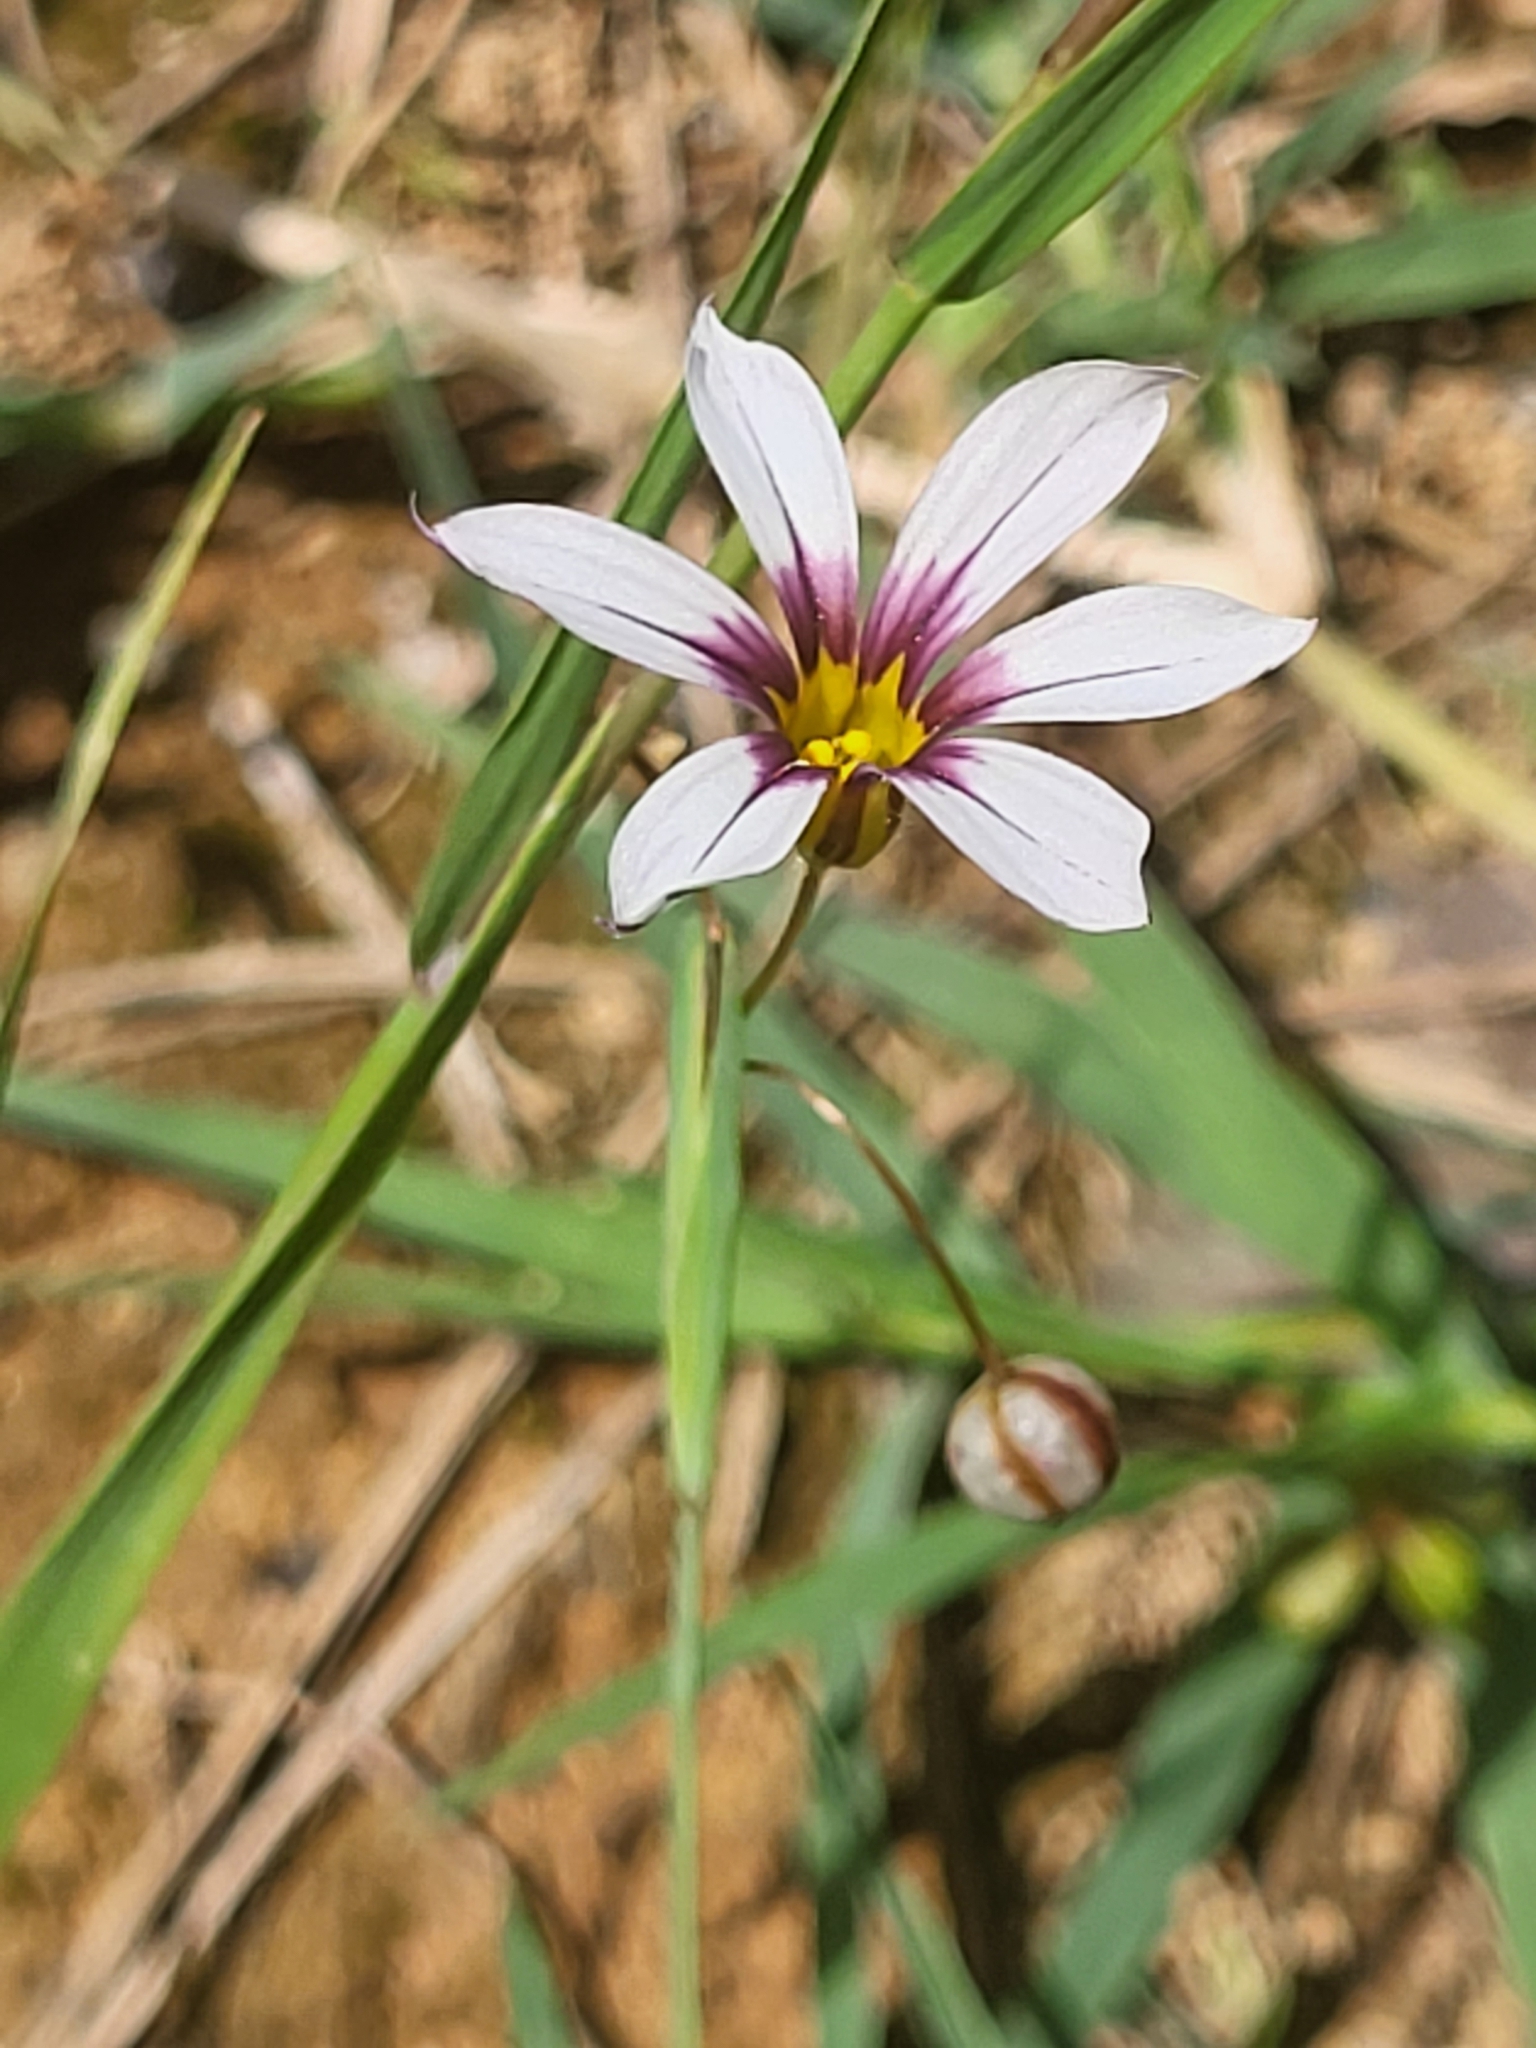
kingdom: Plantae
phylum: Tracheophyta
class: Liliopsida
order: Asparagales
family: Iridaceae
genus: Sisyrinchium
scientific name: Sisyrinchium micranthum
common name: Bermuda pigroot
